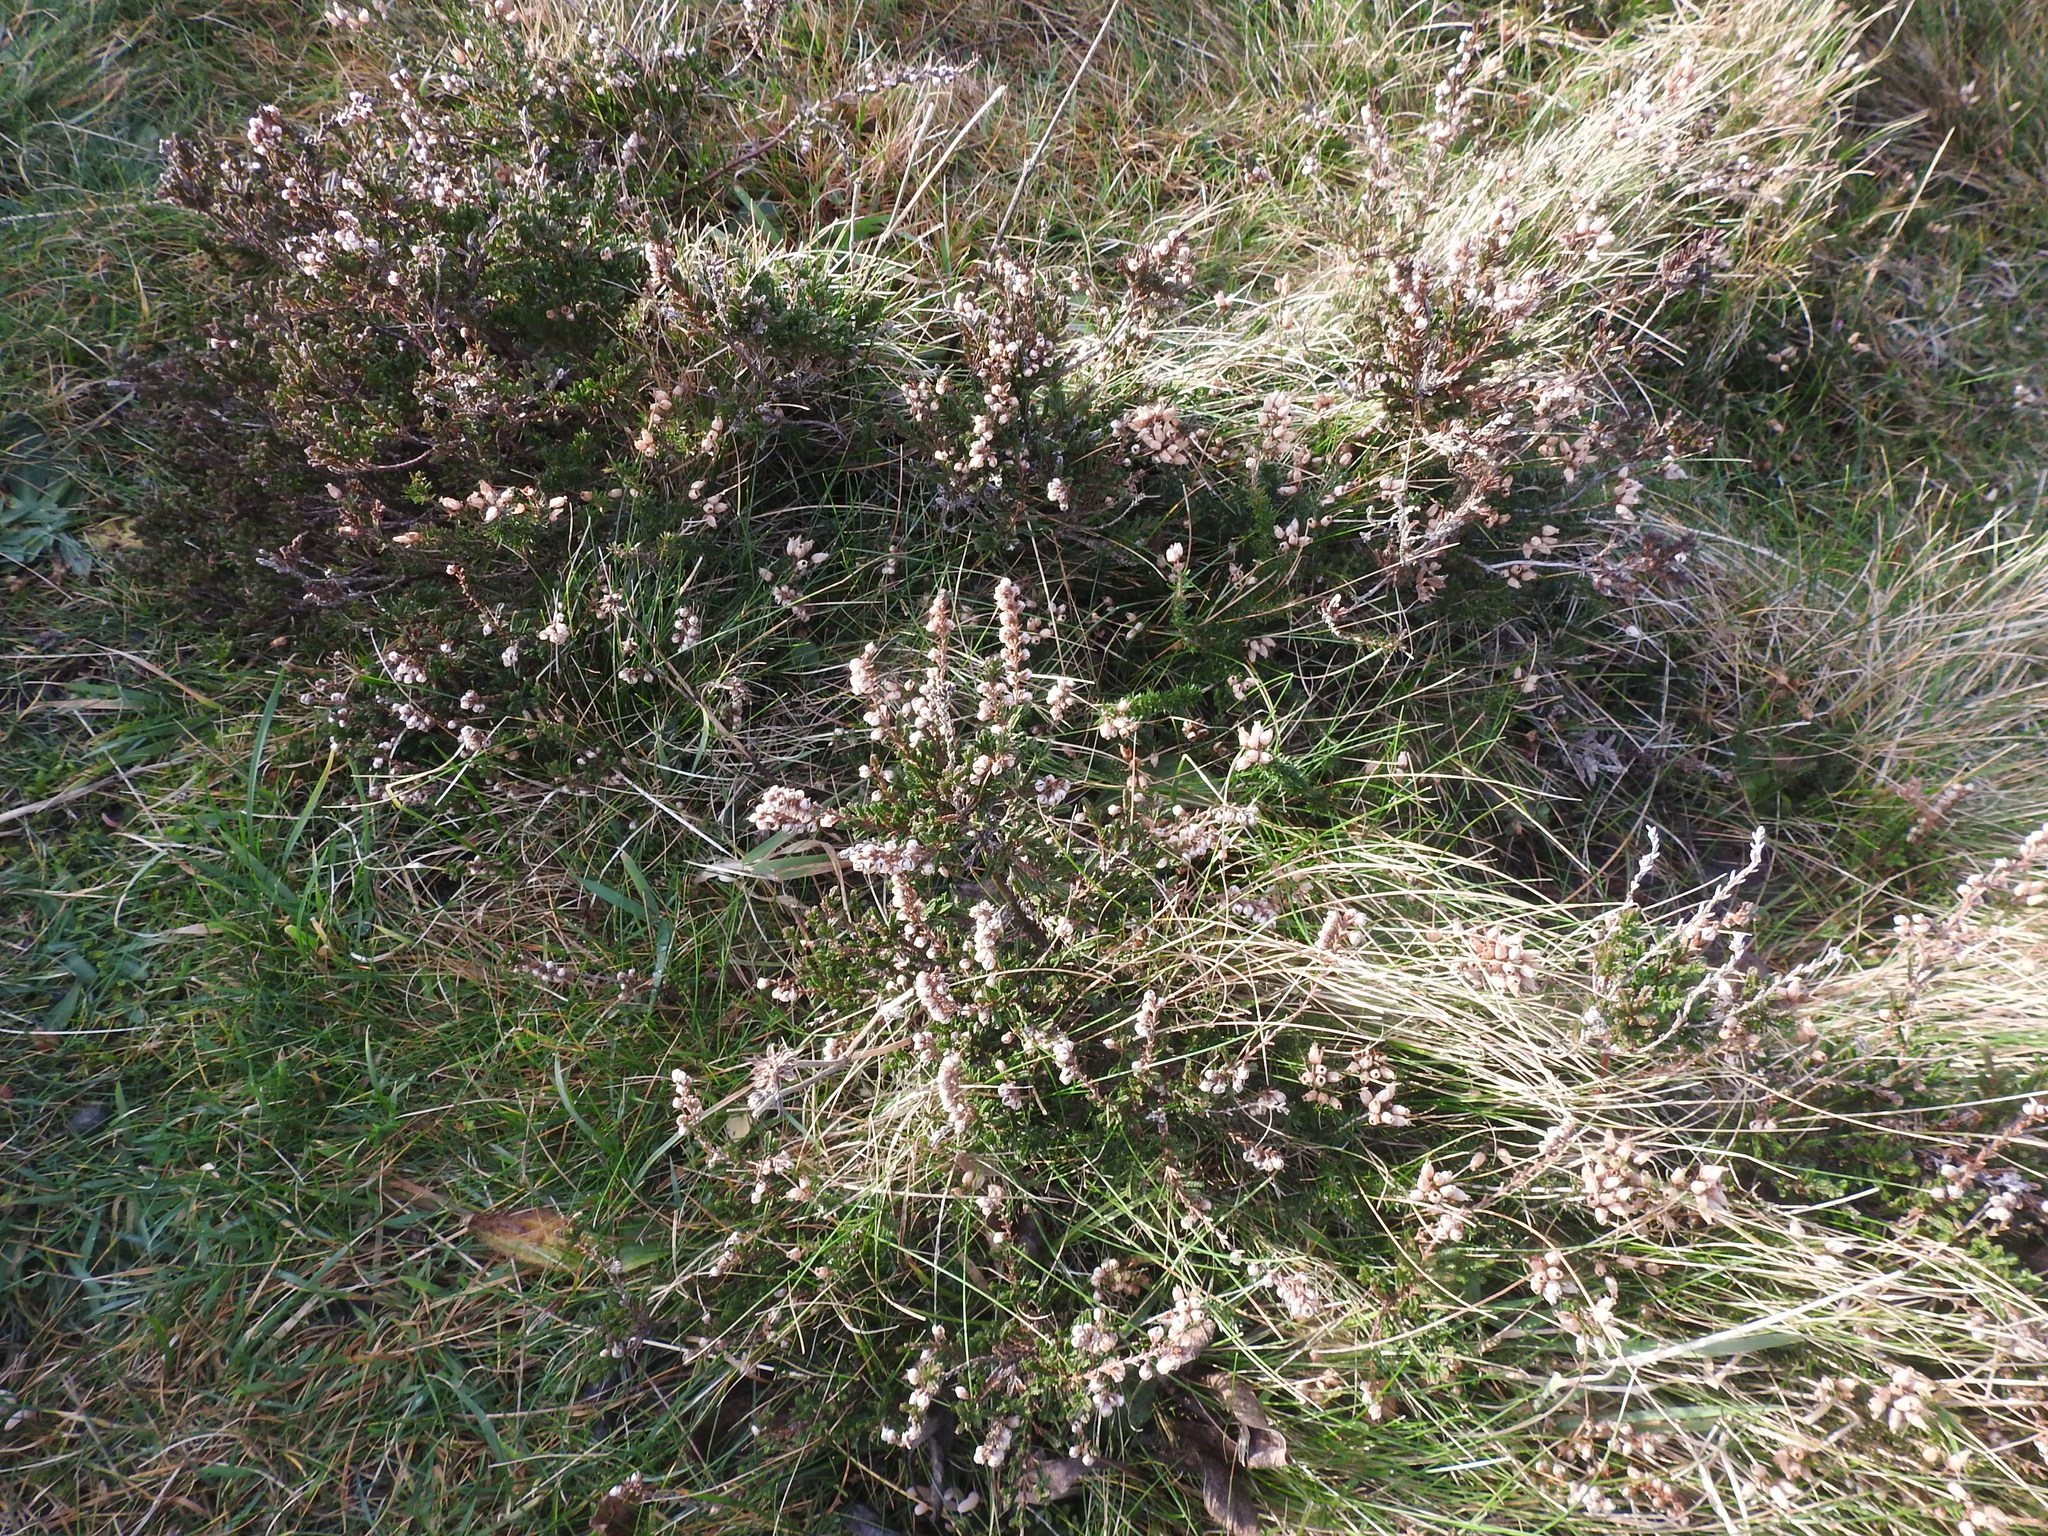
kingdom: Plantae
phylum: Tracheophyta
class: Magnoliopsida
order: Ericales
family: Ericaceae
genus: Calluna
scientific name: Calluna vulgaris
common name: Heather
